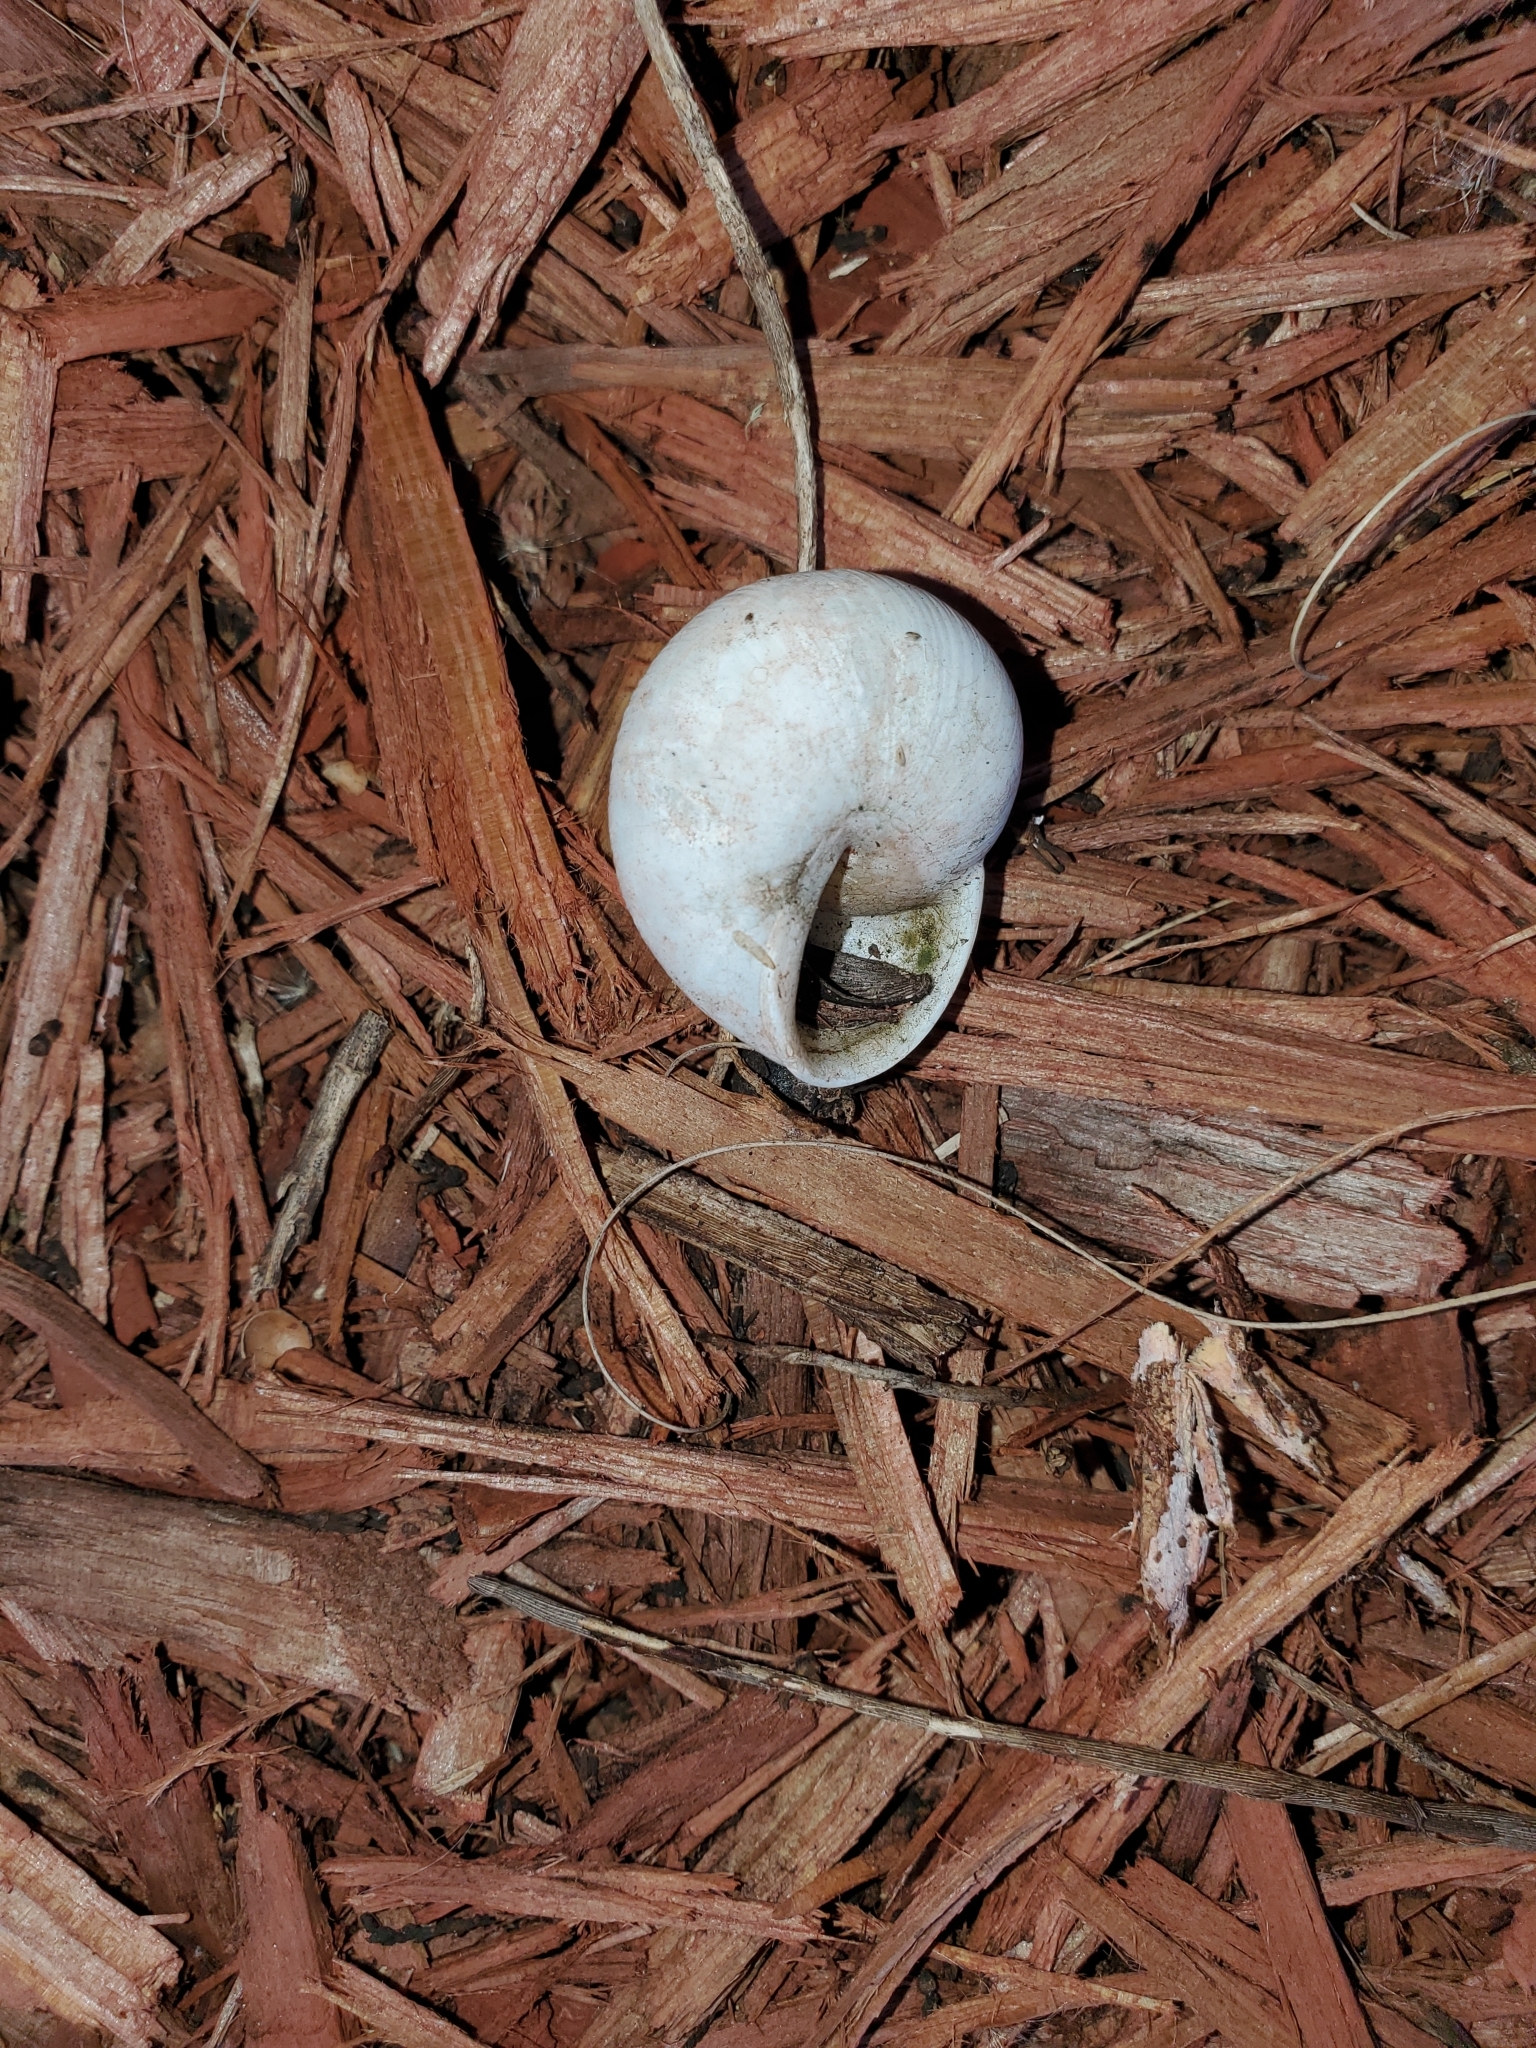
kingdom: Animalia
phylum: Mollusca
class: Gastropoda
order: Stylommatophora
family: Zachrysiidae
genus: Zachrysia
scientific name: Zachrysia provisoria
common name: Garden zachrysia
